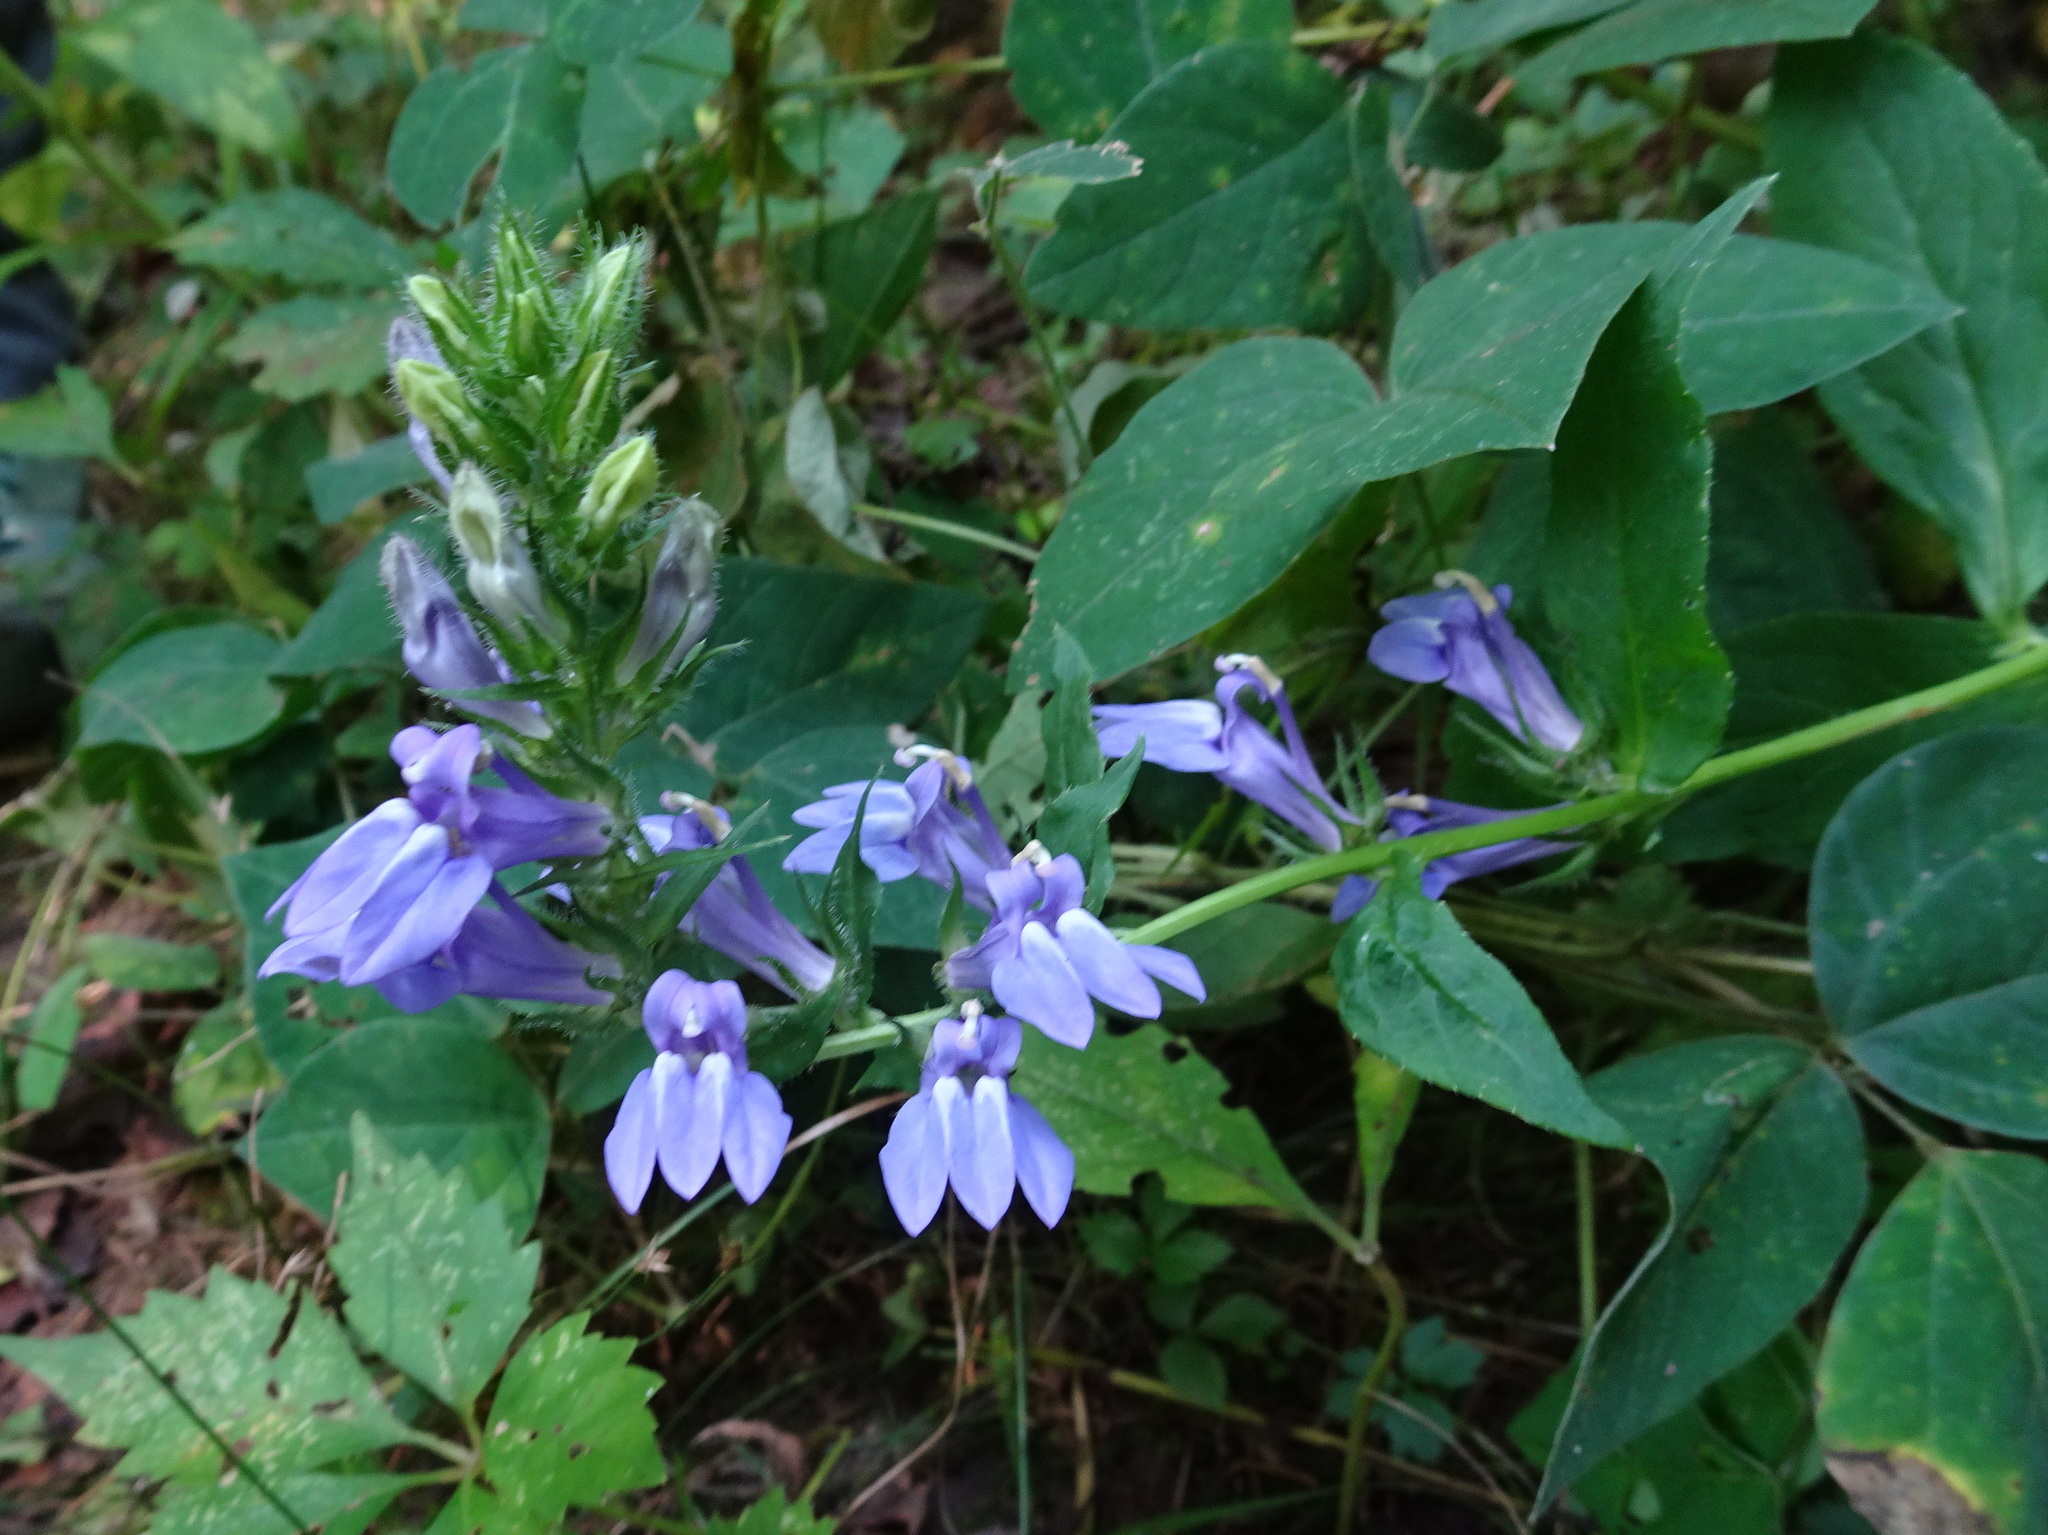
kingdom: Plantae
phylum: Tracheophyta
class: Magnoliopsida
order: Asterales
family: Campanulaceae
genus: Lobelia
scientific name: Lobelia siphilitica
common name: Great lobelia
